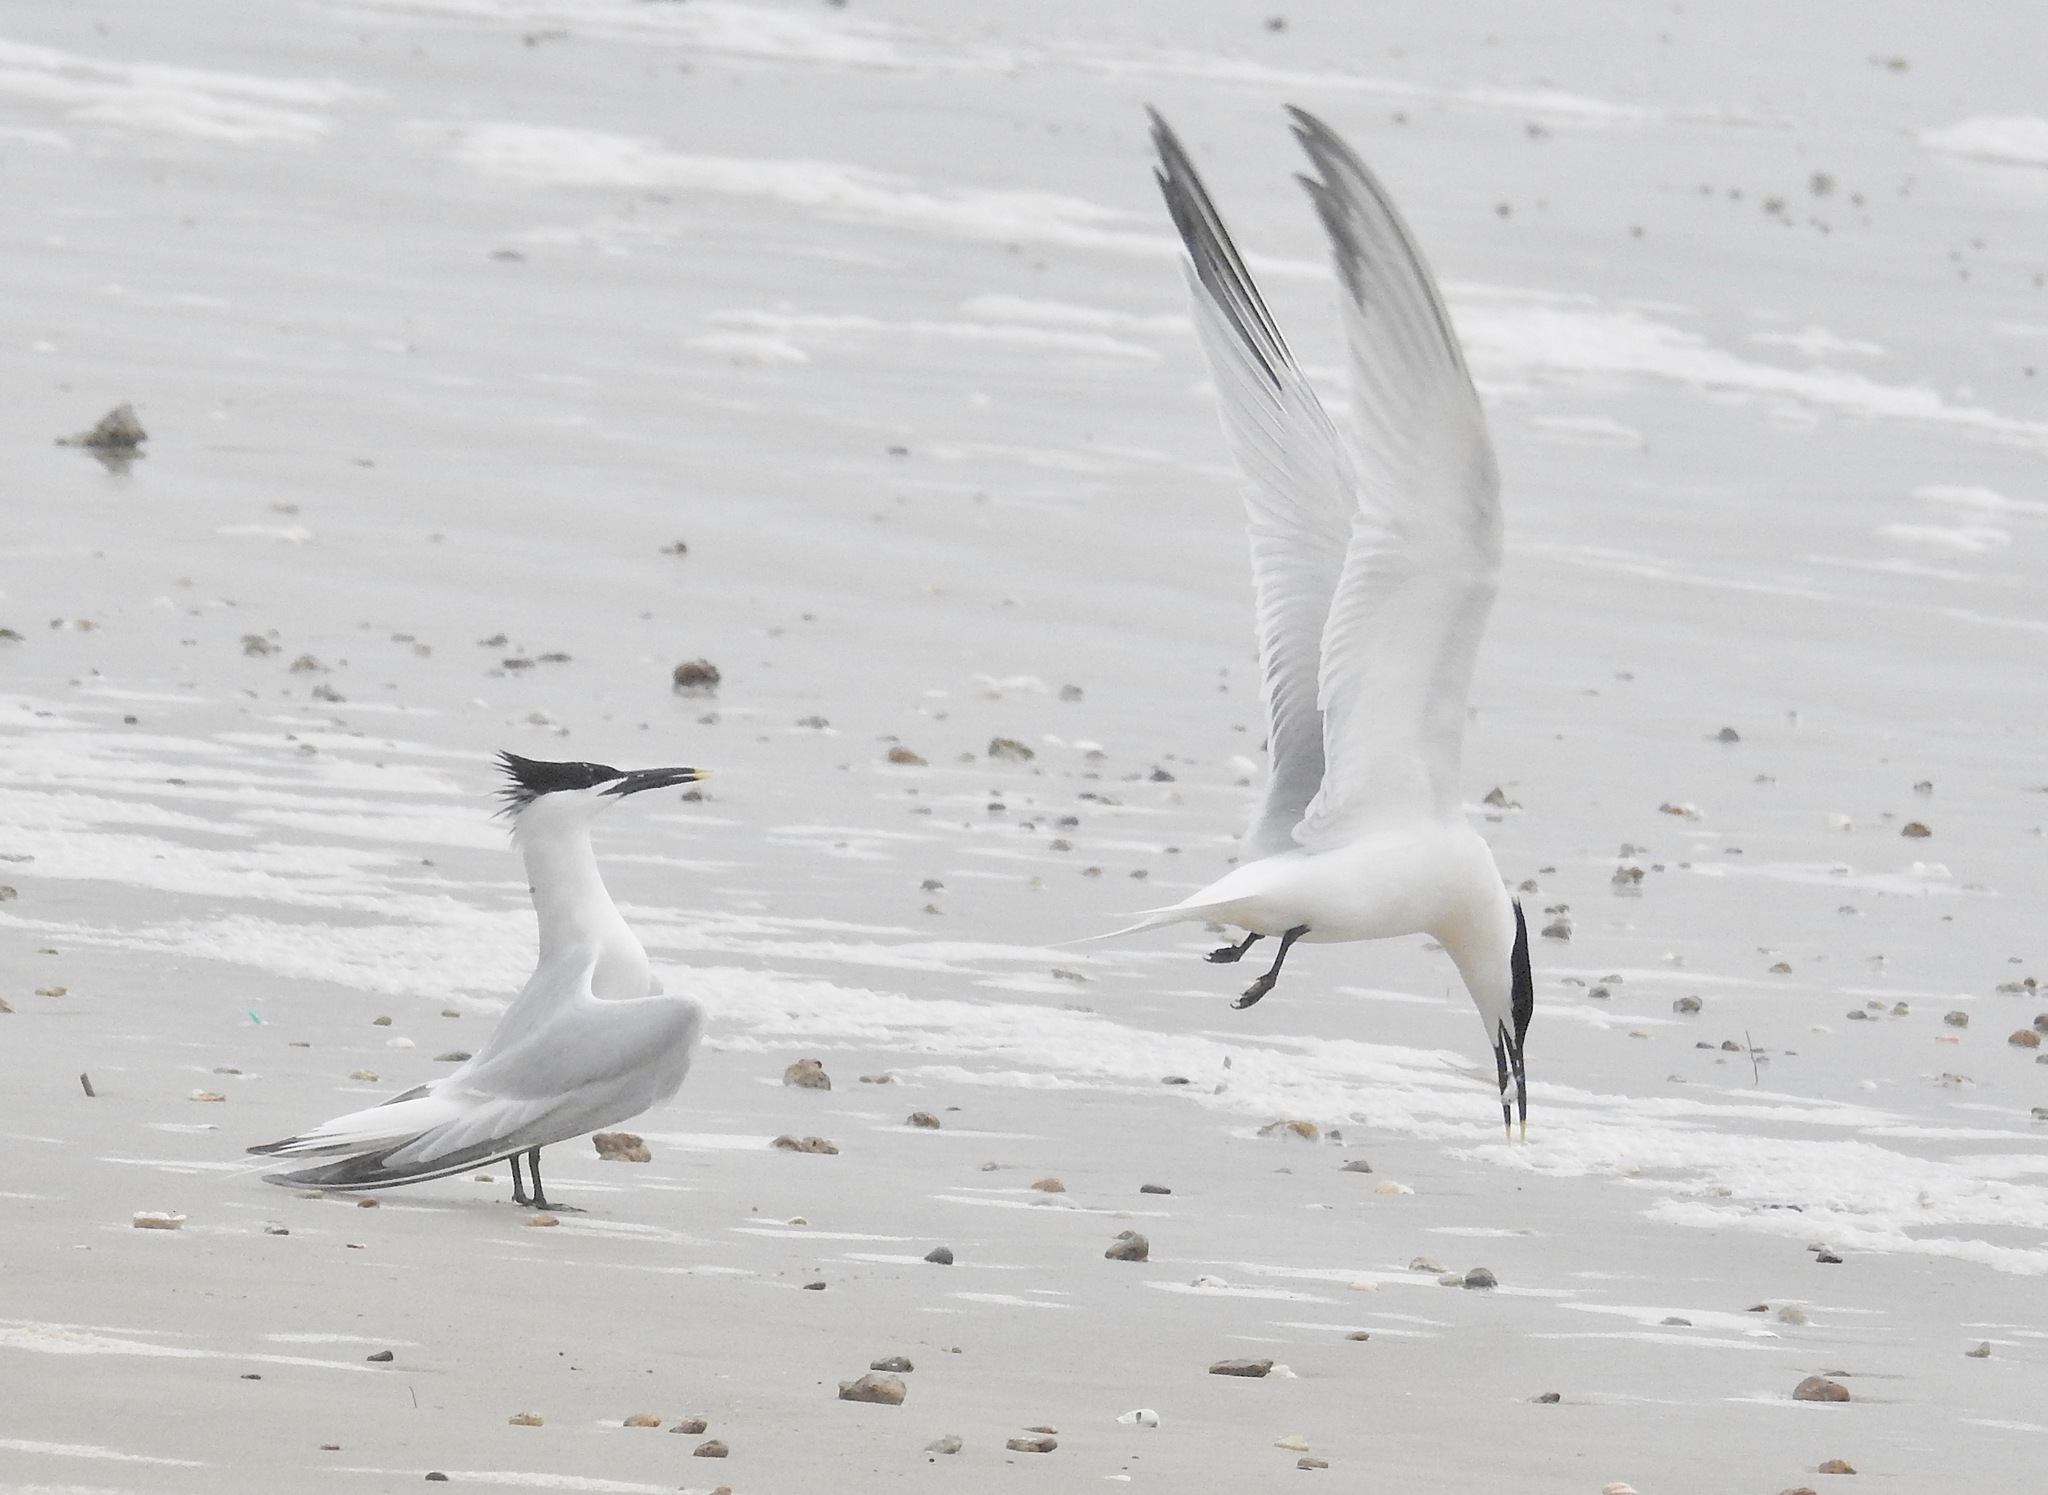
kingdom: Animalia
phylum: Chordata
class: Aves
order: Charadriiformes
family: Laridae
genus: Thalasseus
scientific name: Thalasseus sandvicensis
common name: Sandwich tern
